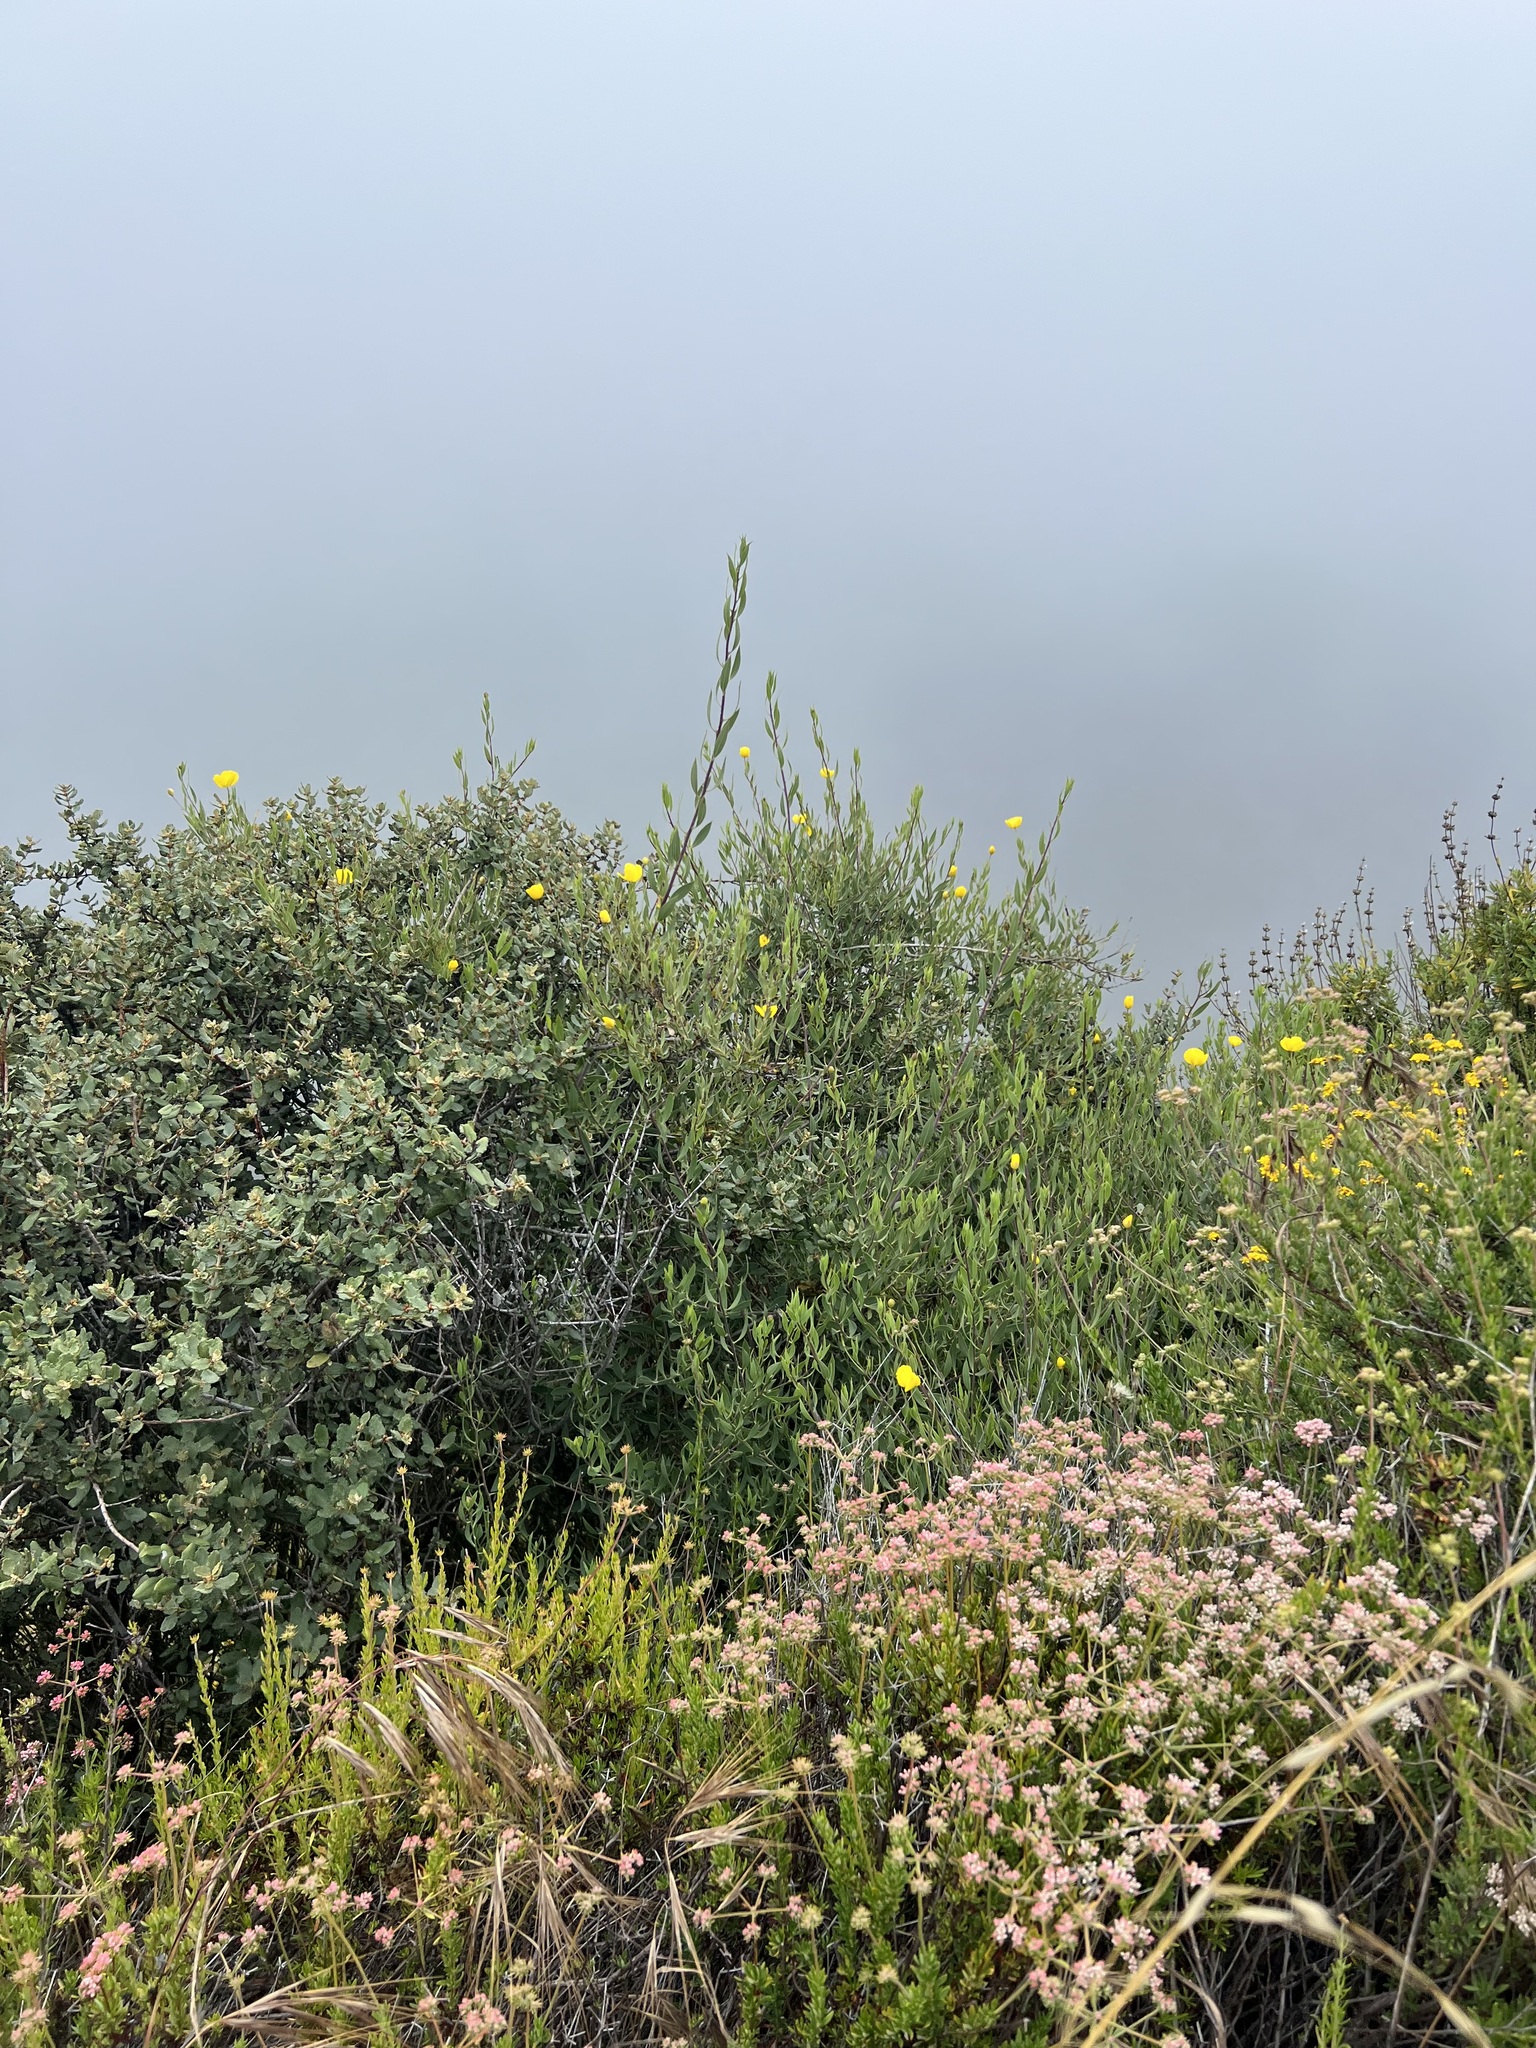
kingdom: Plantae
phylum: Tracheophyta
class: Magnoliopsida
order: Ranunculales
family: Papaveraceae
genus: Dendromecon
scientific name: Dendromecon rigida
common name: Tree poppy
